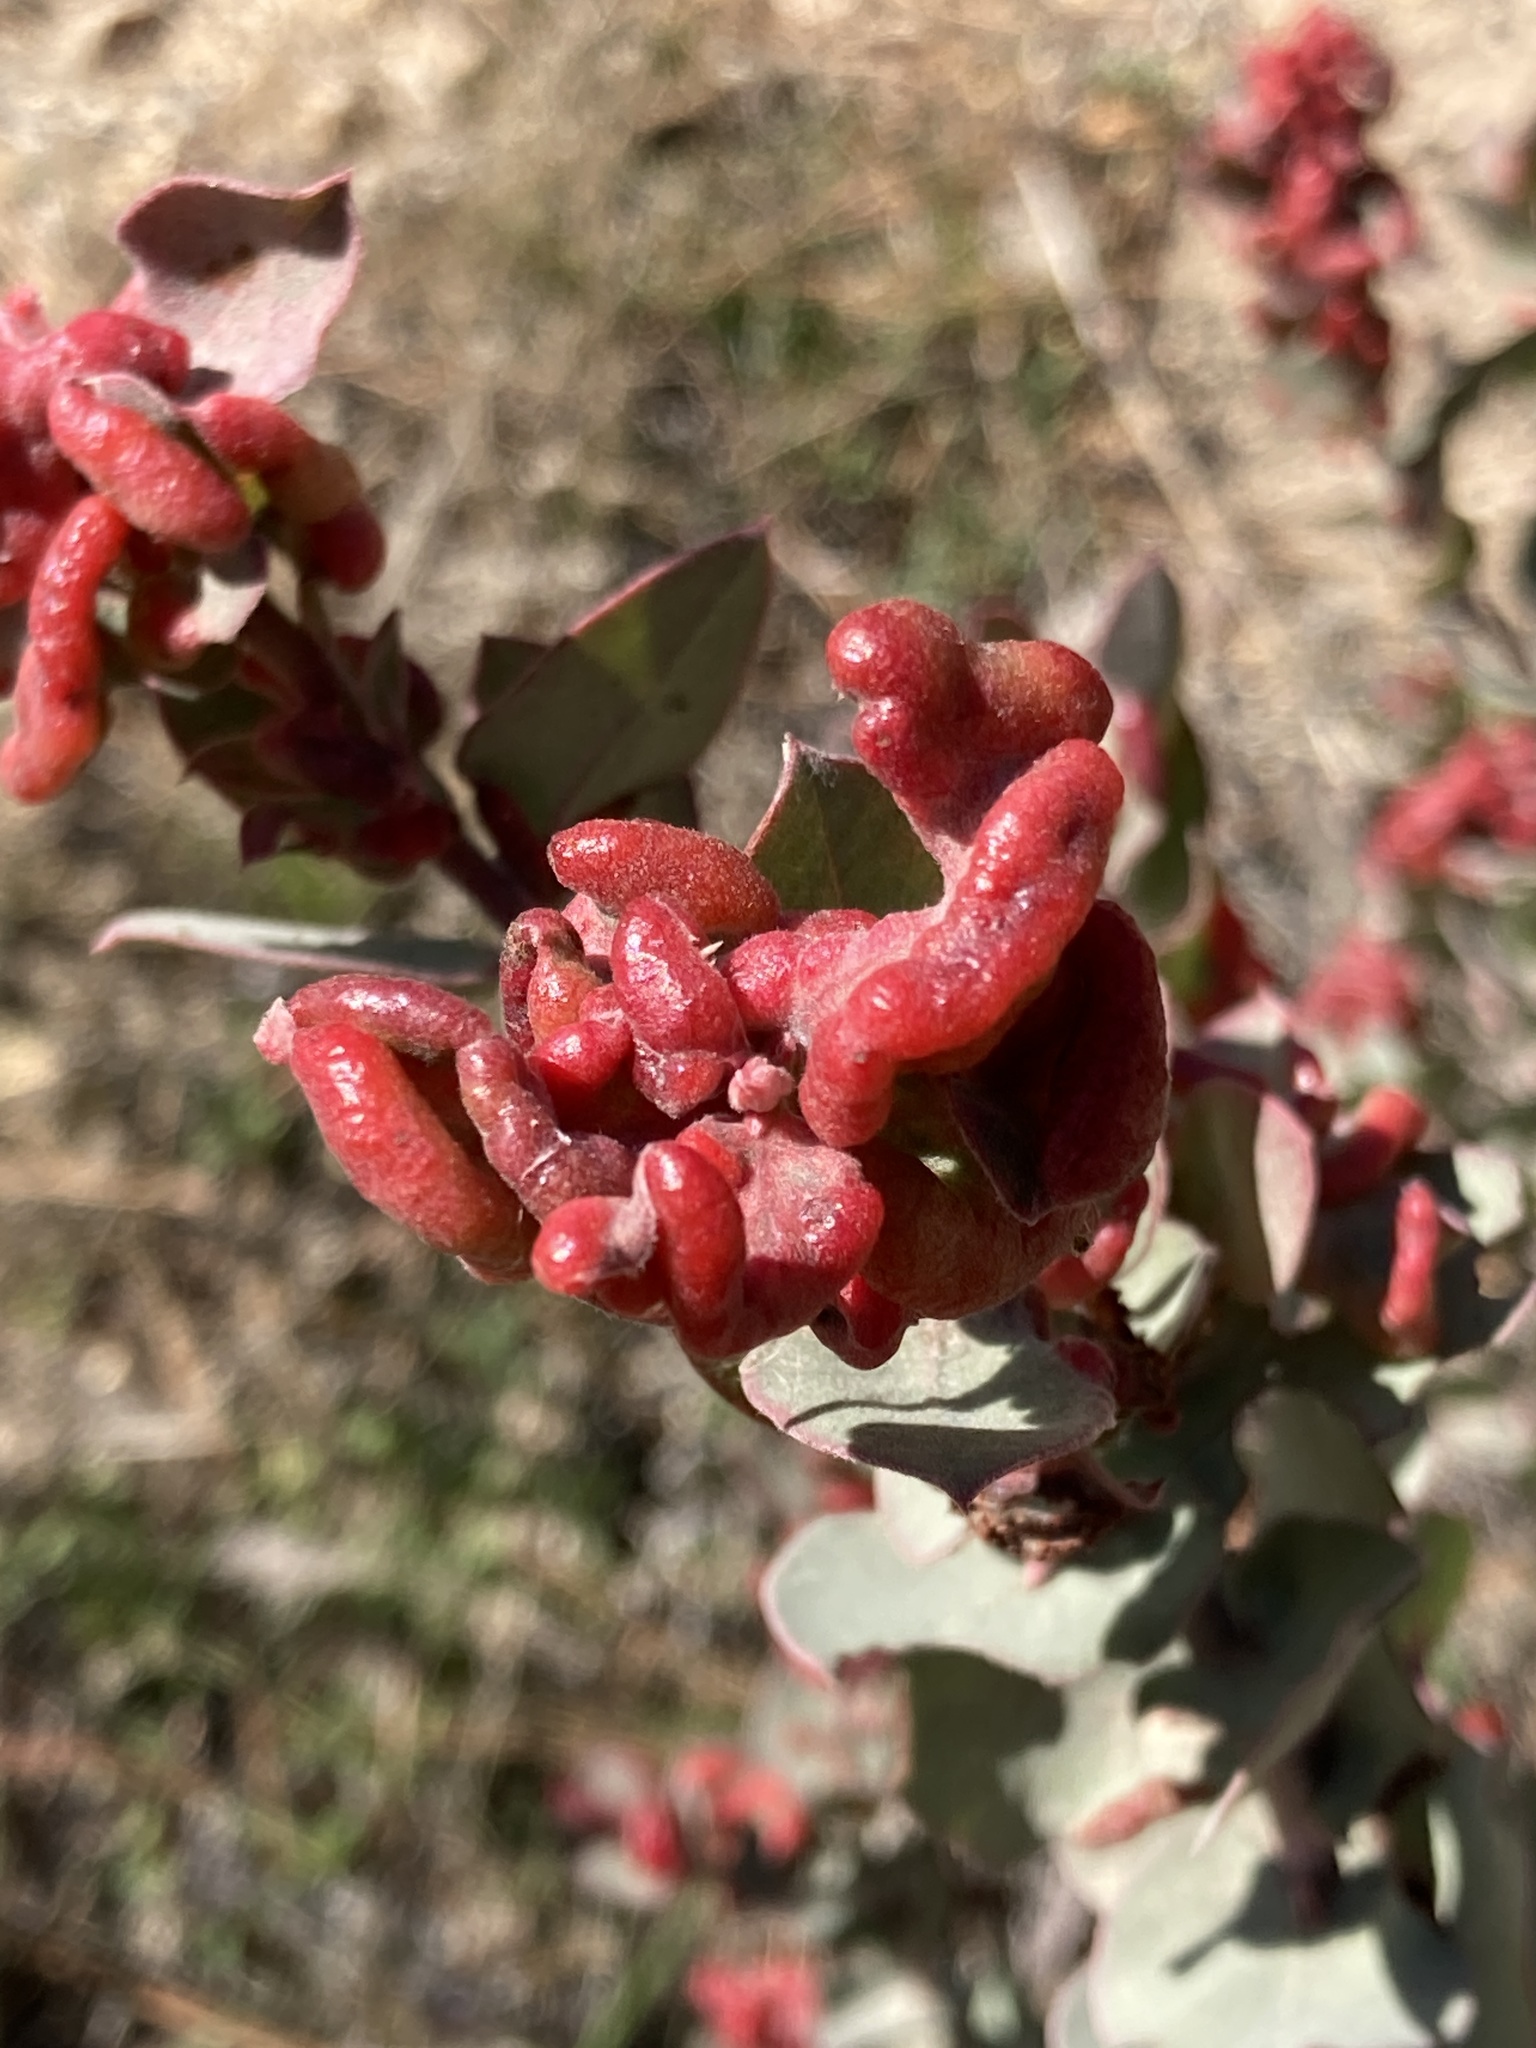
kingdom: Animalia
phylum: Arthropoda
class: Insecta
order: Hemiptera
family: Aphididae
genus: Tamalia
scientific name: Tamalia coweni
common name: Manzanita leafgall aphid
